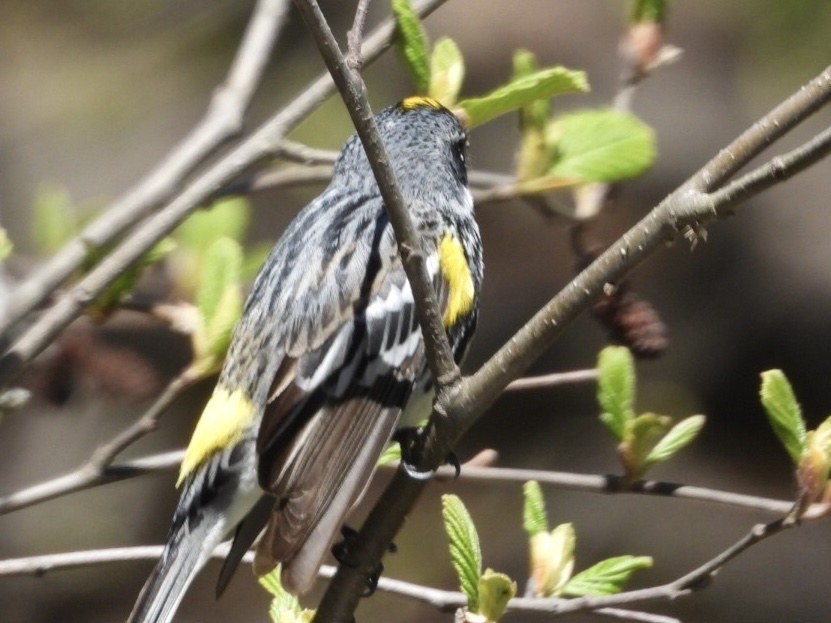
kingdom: Animalia
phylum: Chordata
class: Aves
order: Passeriformes
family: Parulidae
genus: Setophaga
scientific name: Setophaga coronata
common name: Myrtle warbler
